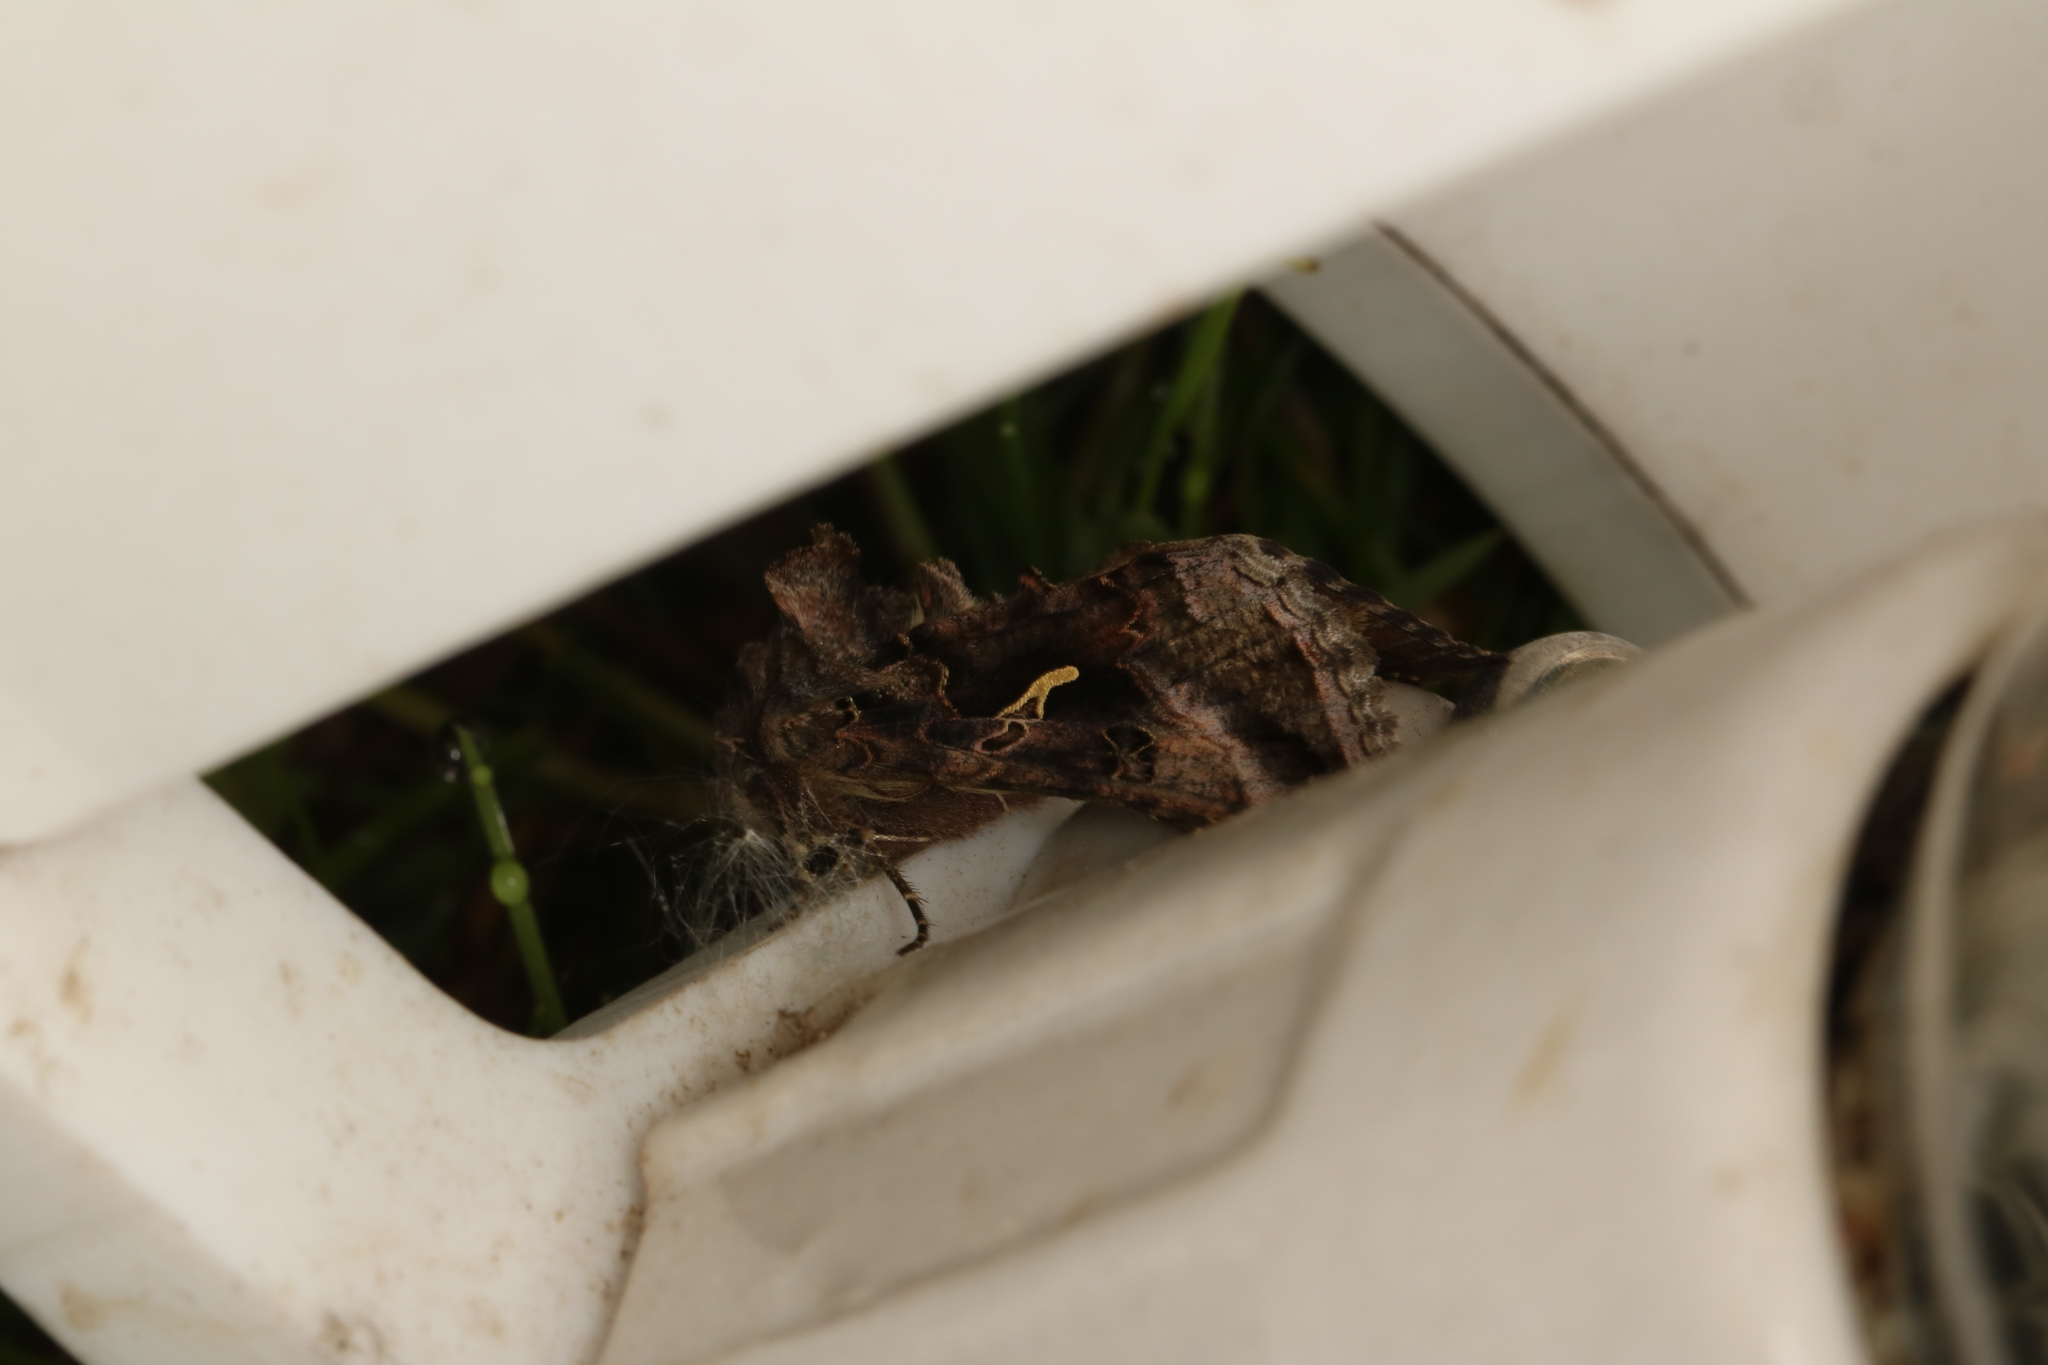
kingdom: Animalia
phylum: Arthropoda
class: Insecta
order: Lepidoptera
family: Noctuidae
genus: Autographa
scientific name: Autographa gamma
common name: Silver y
